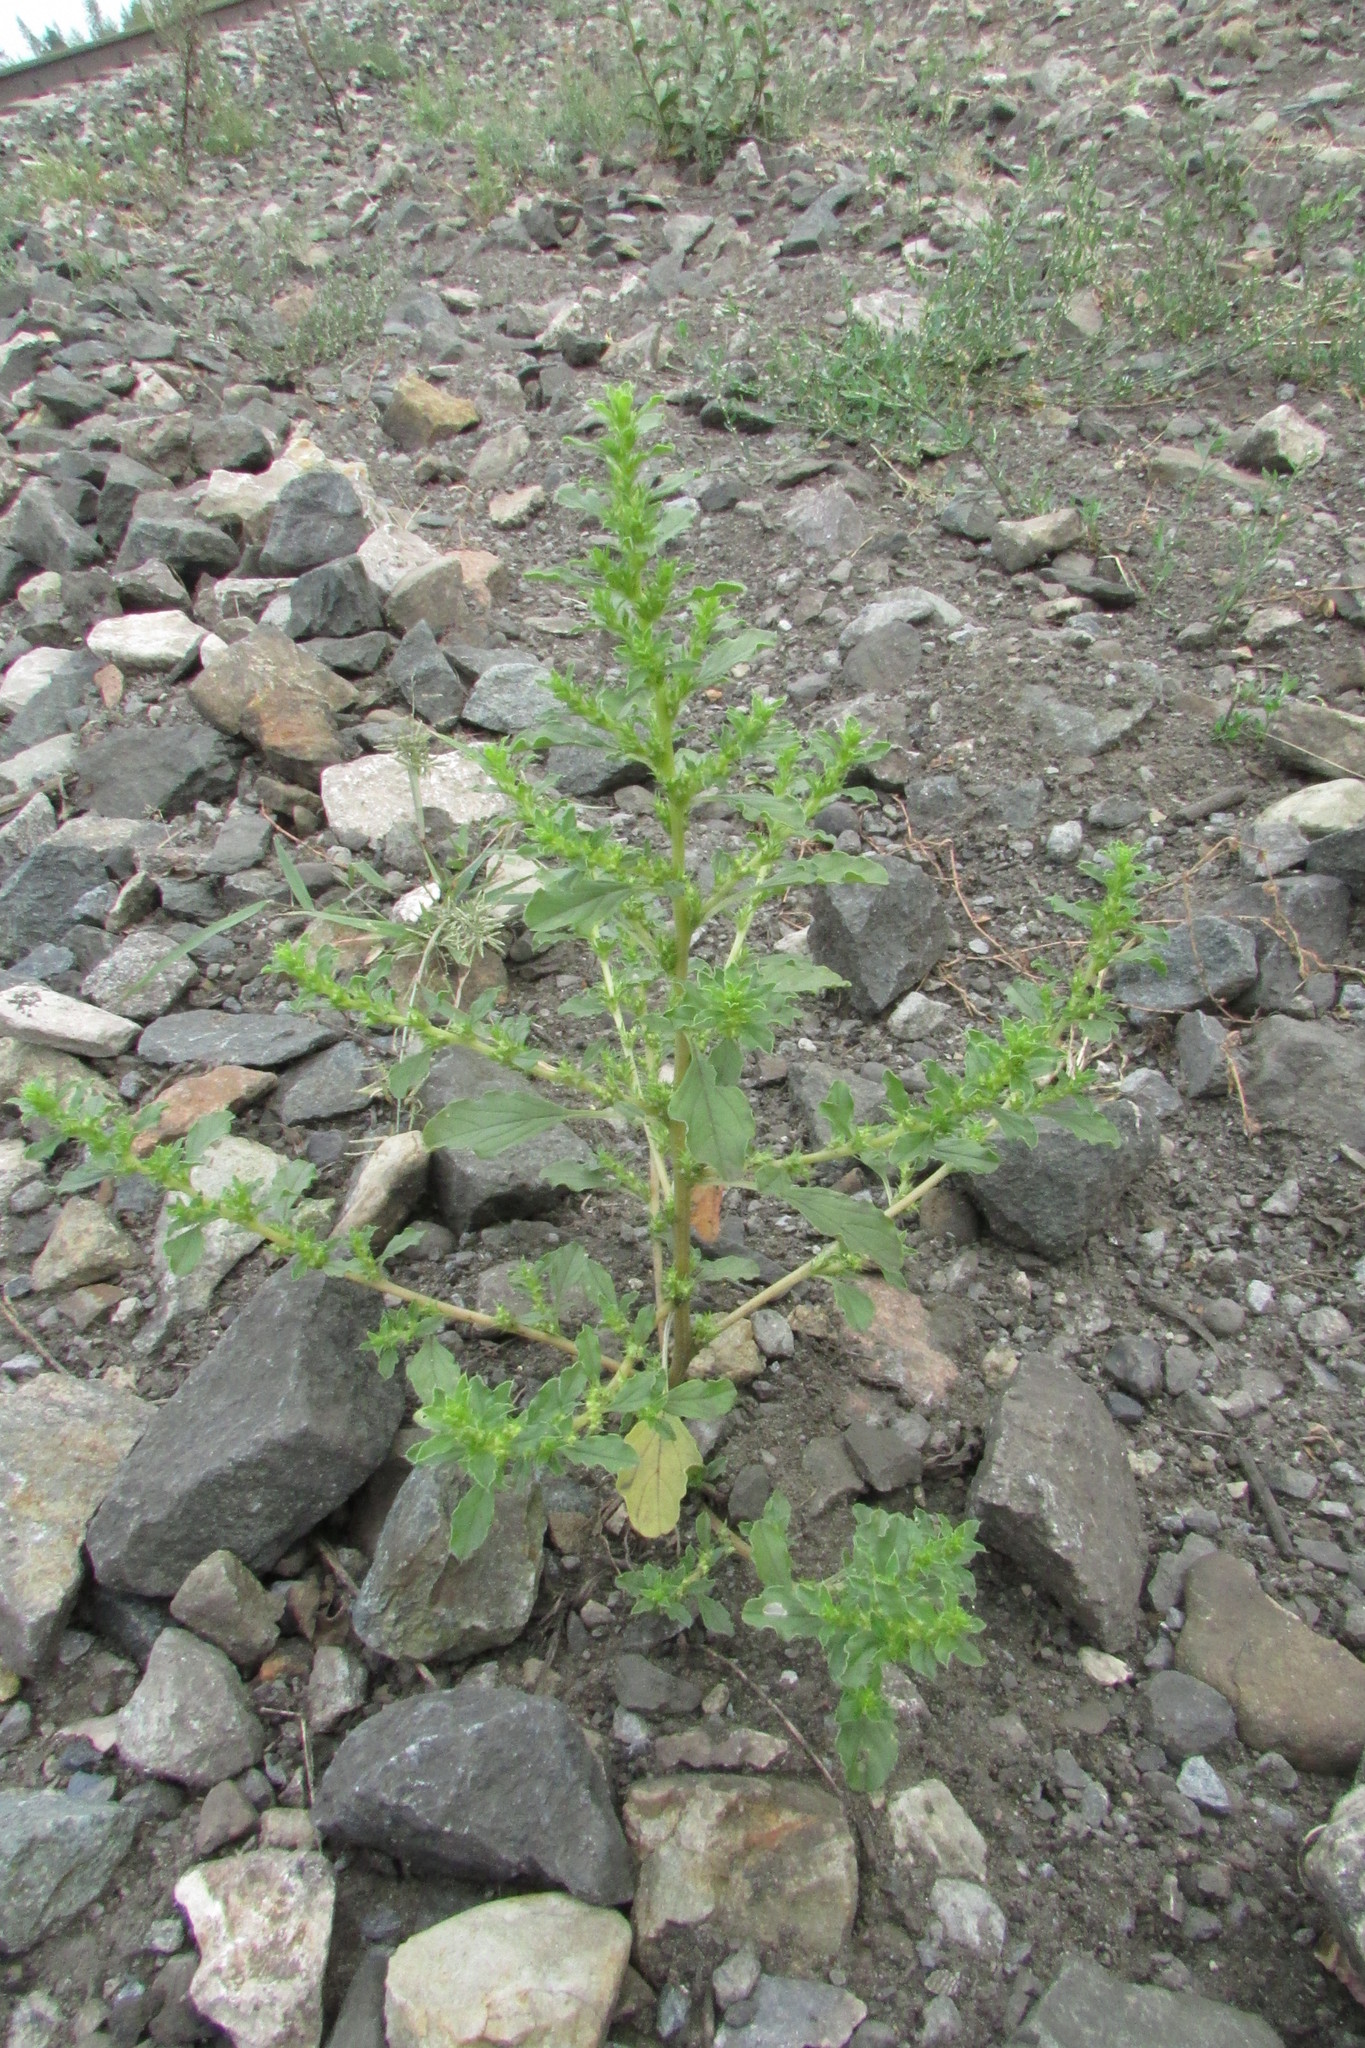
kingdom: Plantae
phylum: Tracheophyta
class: Magnoliopsida
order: Caryophyllales
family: Amaranthaceae
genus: Amaranthus
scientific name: Amaranthus albus
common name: White pigweed
